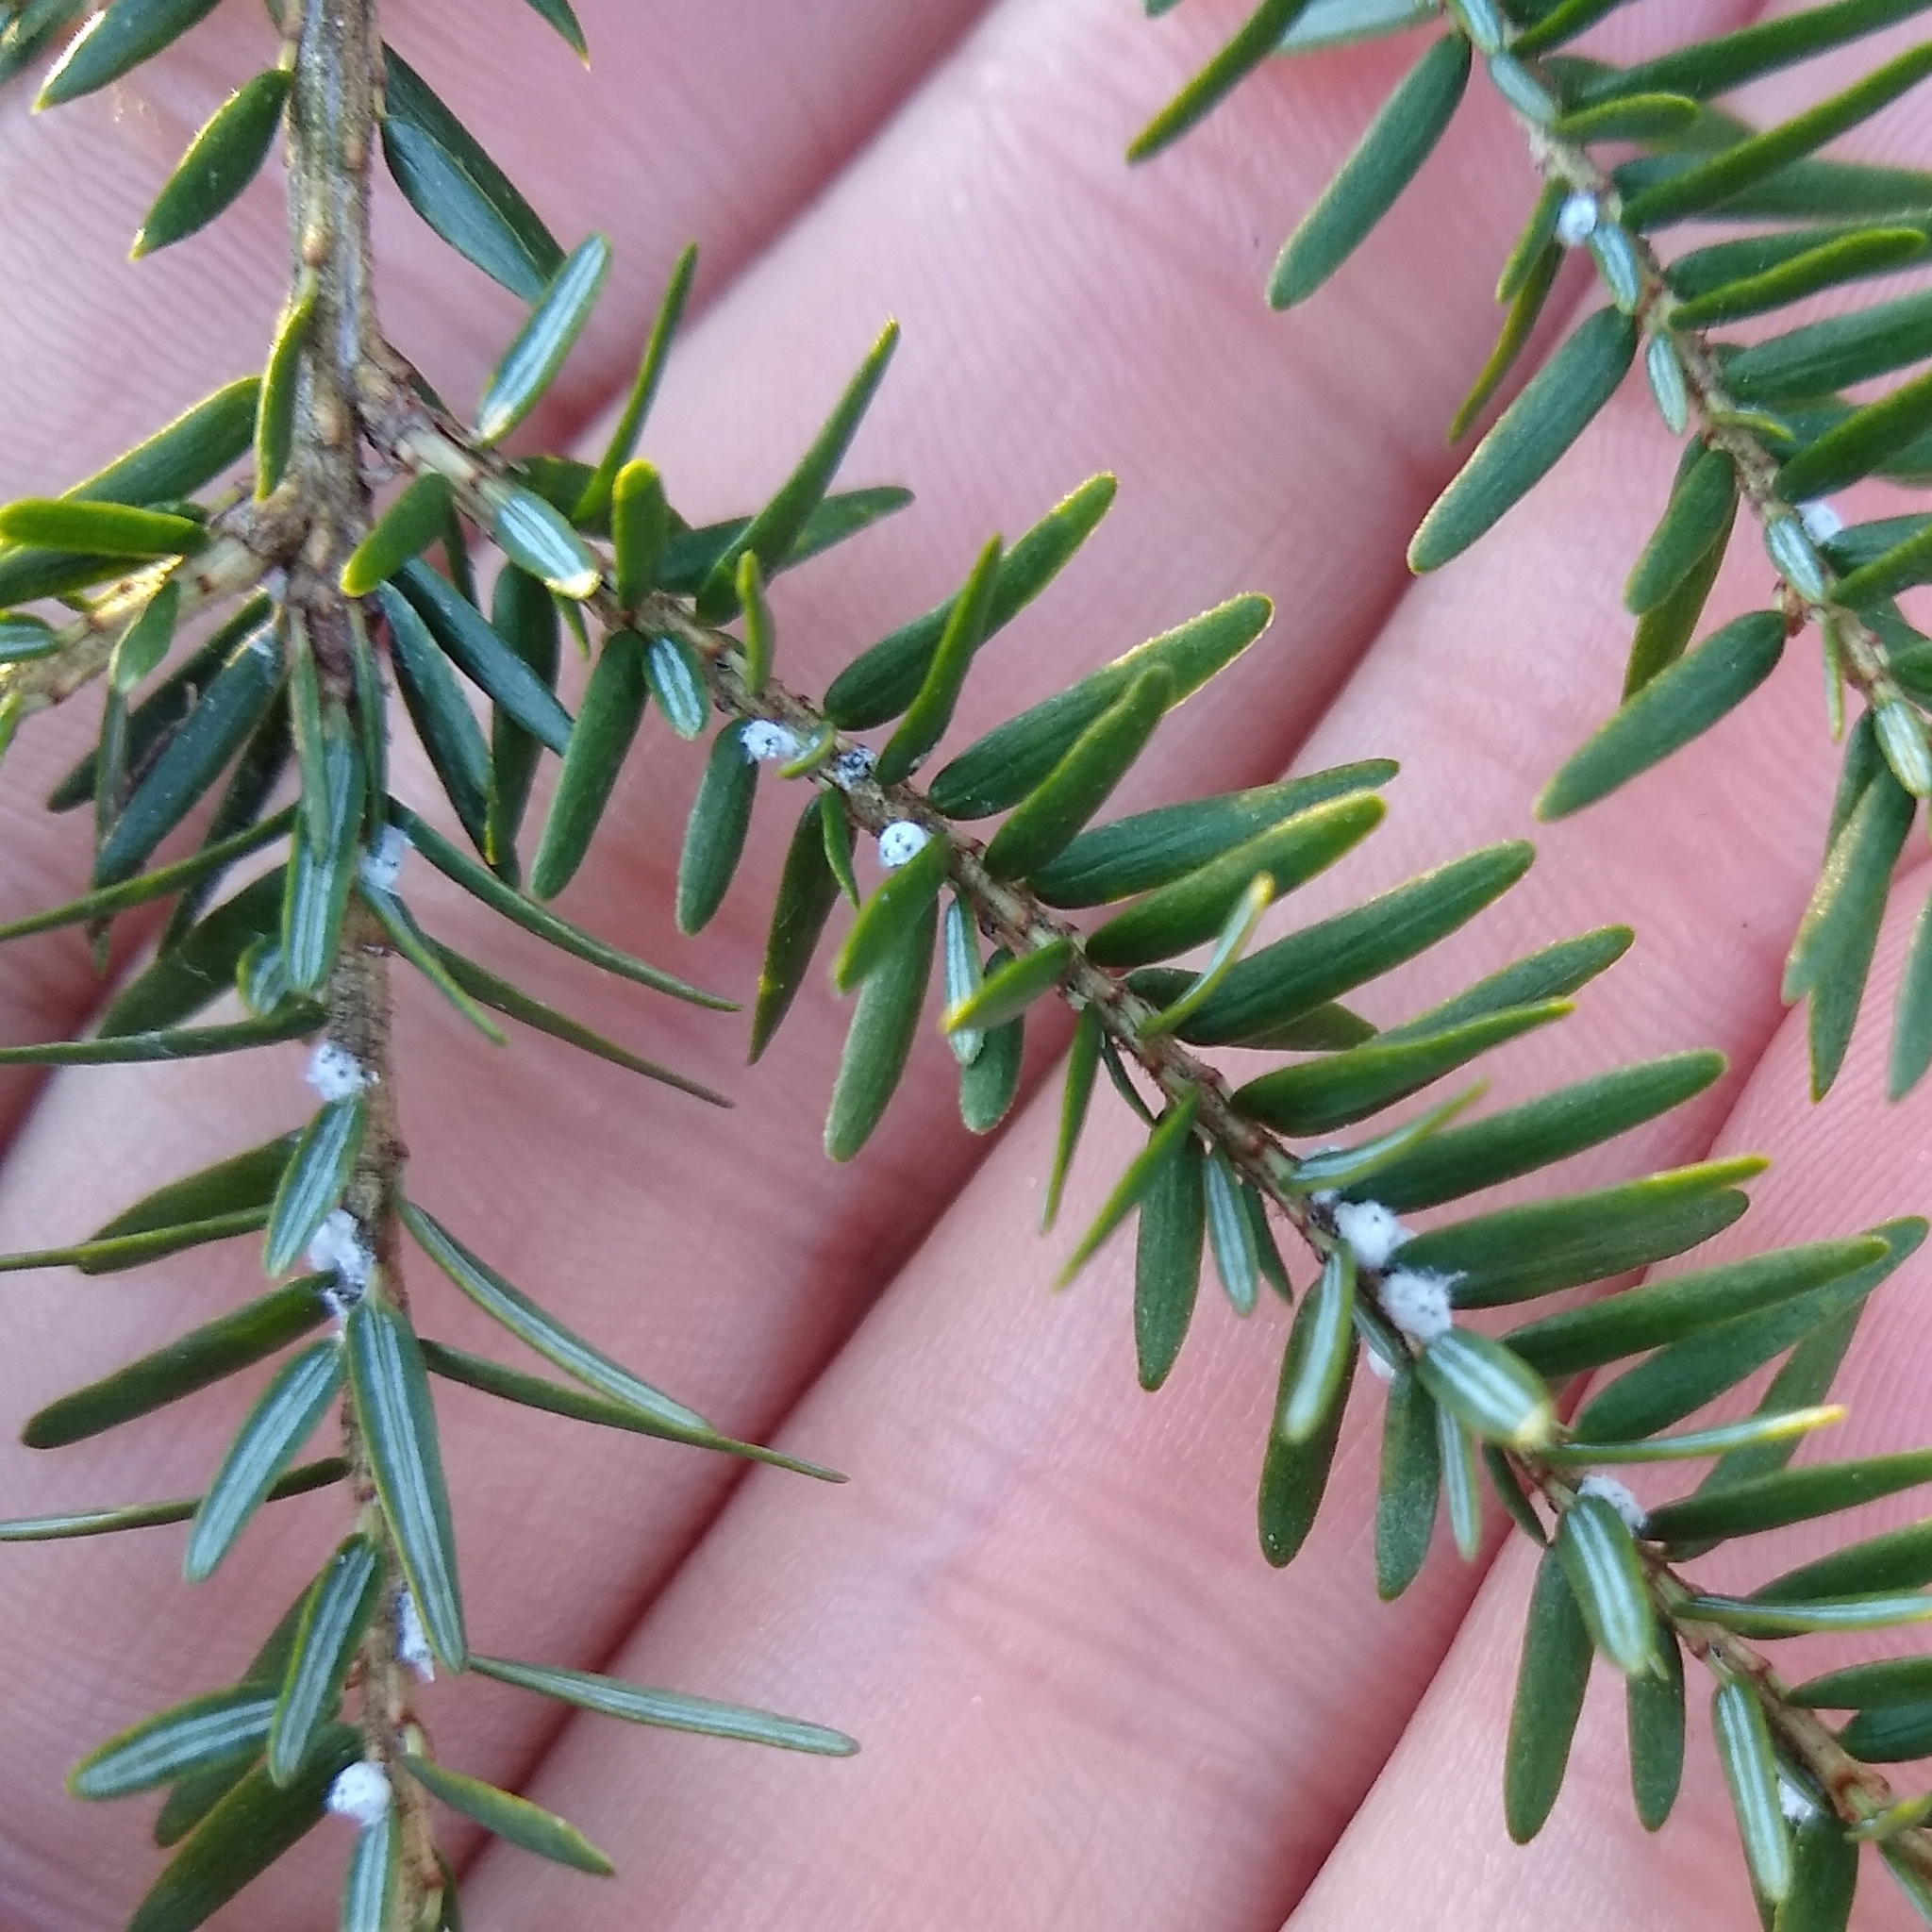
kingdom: Animalia
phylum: Arthropoda
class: Insecta
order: Hemiptera
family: Adelgidae
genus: Adelges
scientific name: Adelges tsugae
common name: Hemlock woolly adelgid
